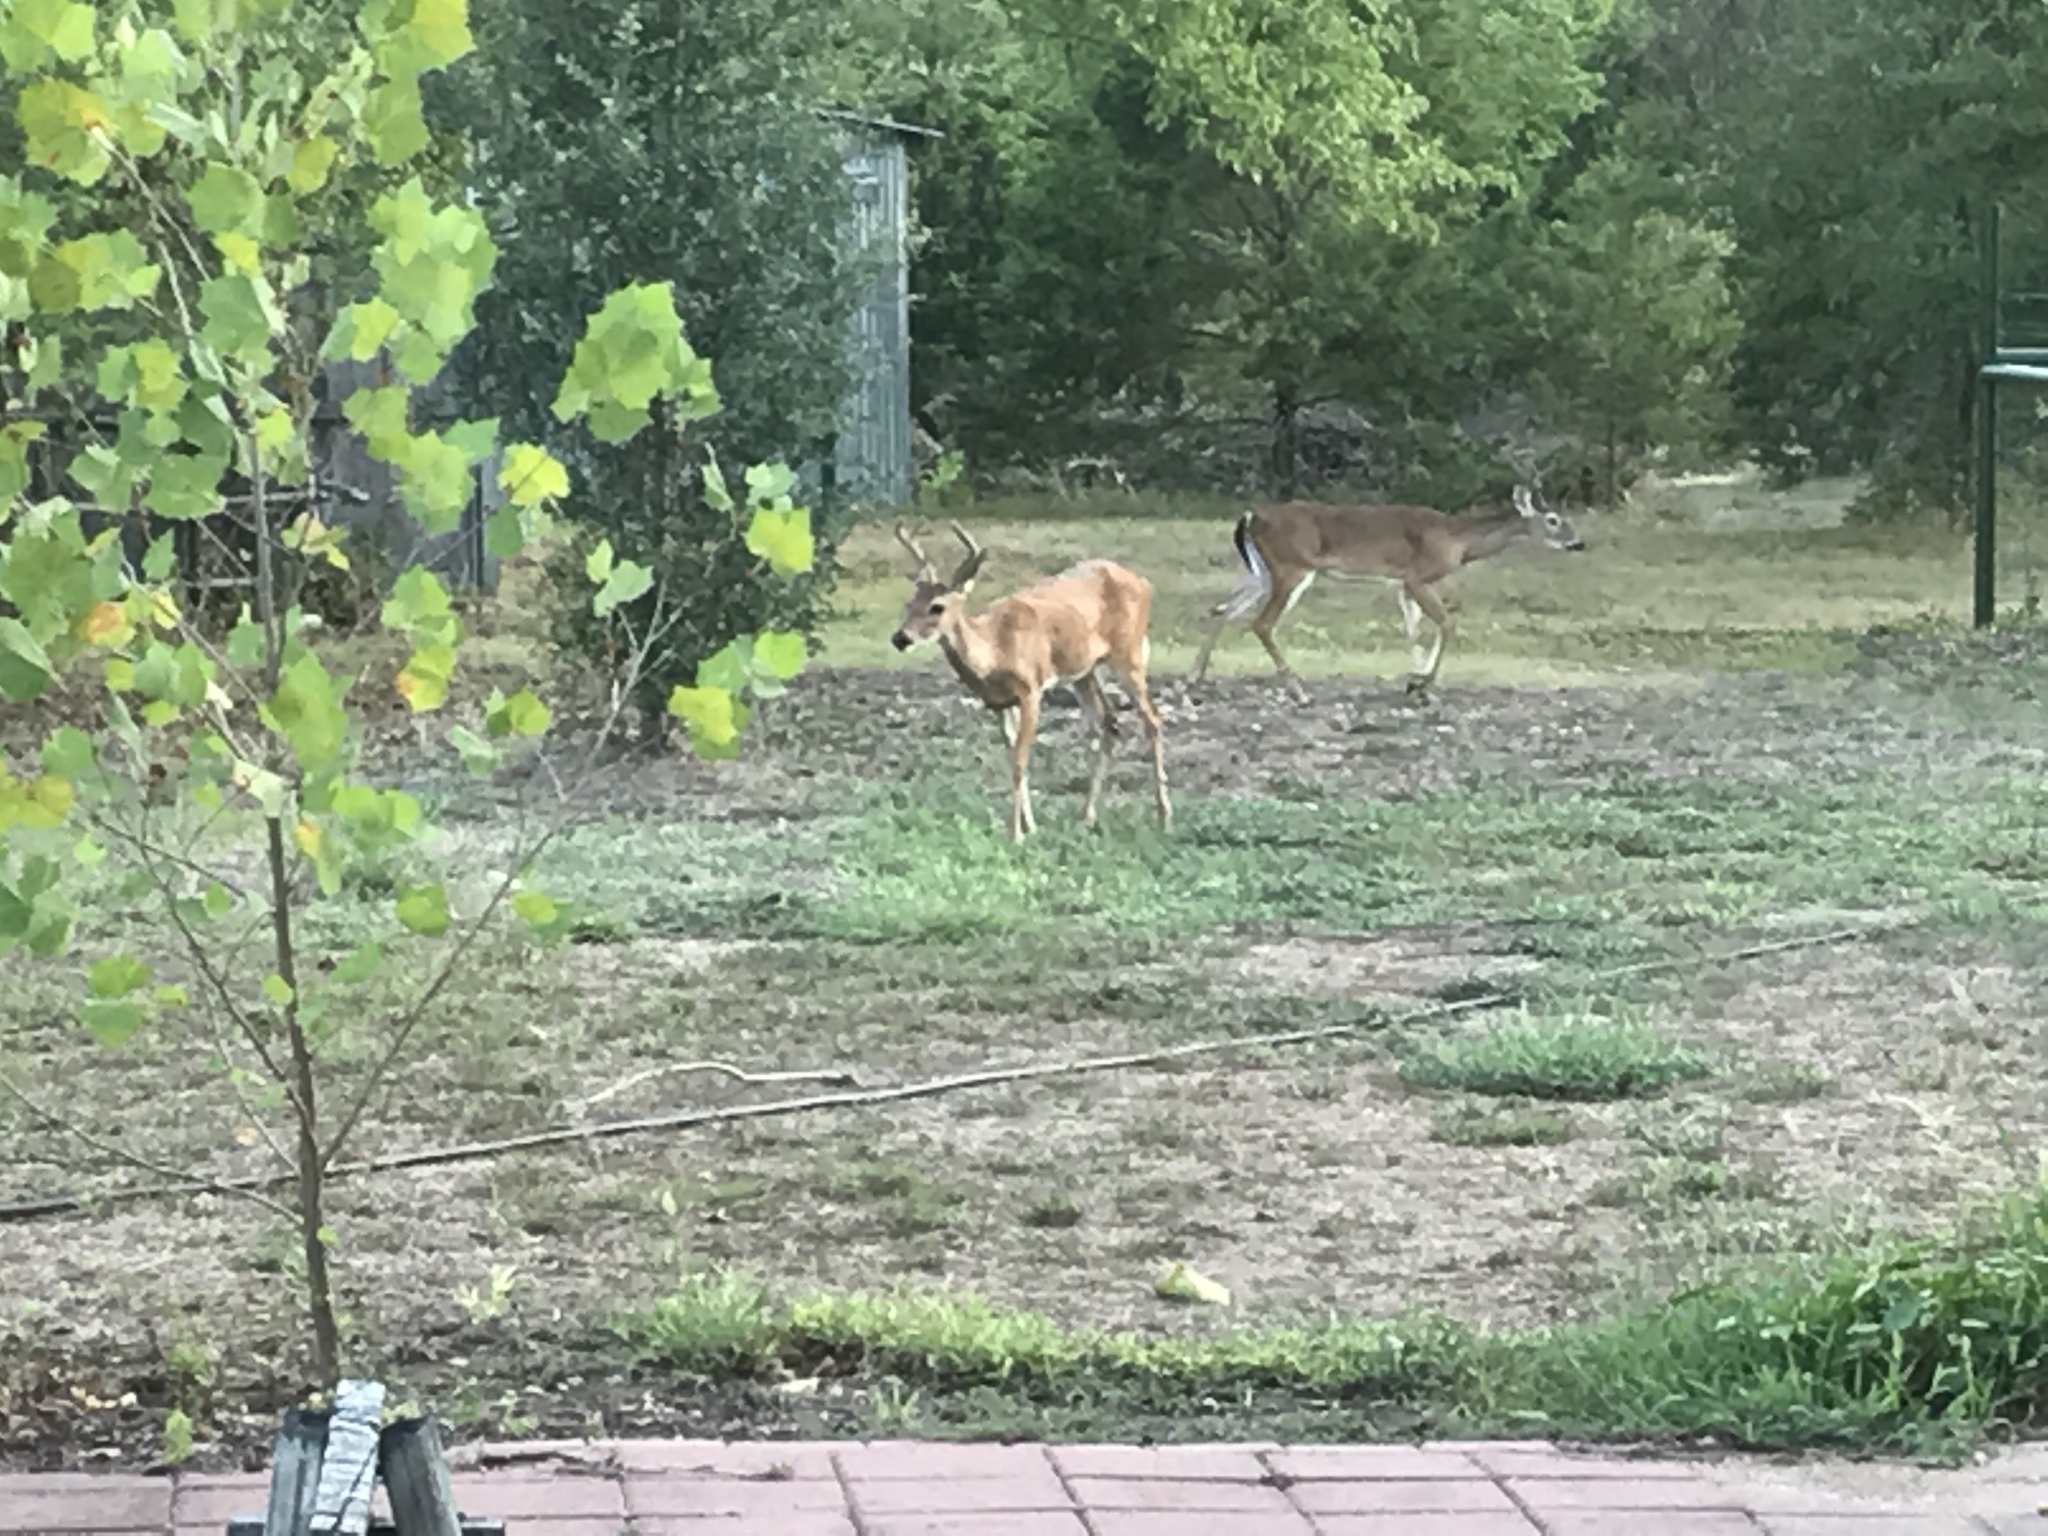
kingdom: Animalia
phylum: Chordata
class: Mammalia
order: Artiodactyla
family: Cervidae
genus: Odocoileus
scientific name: Odocoileus virginianus
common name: White-tailed deer
